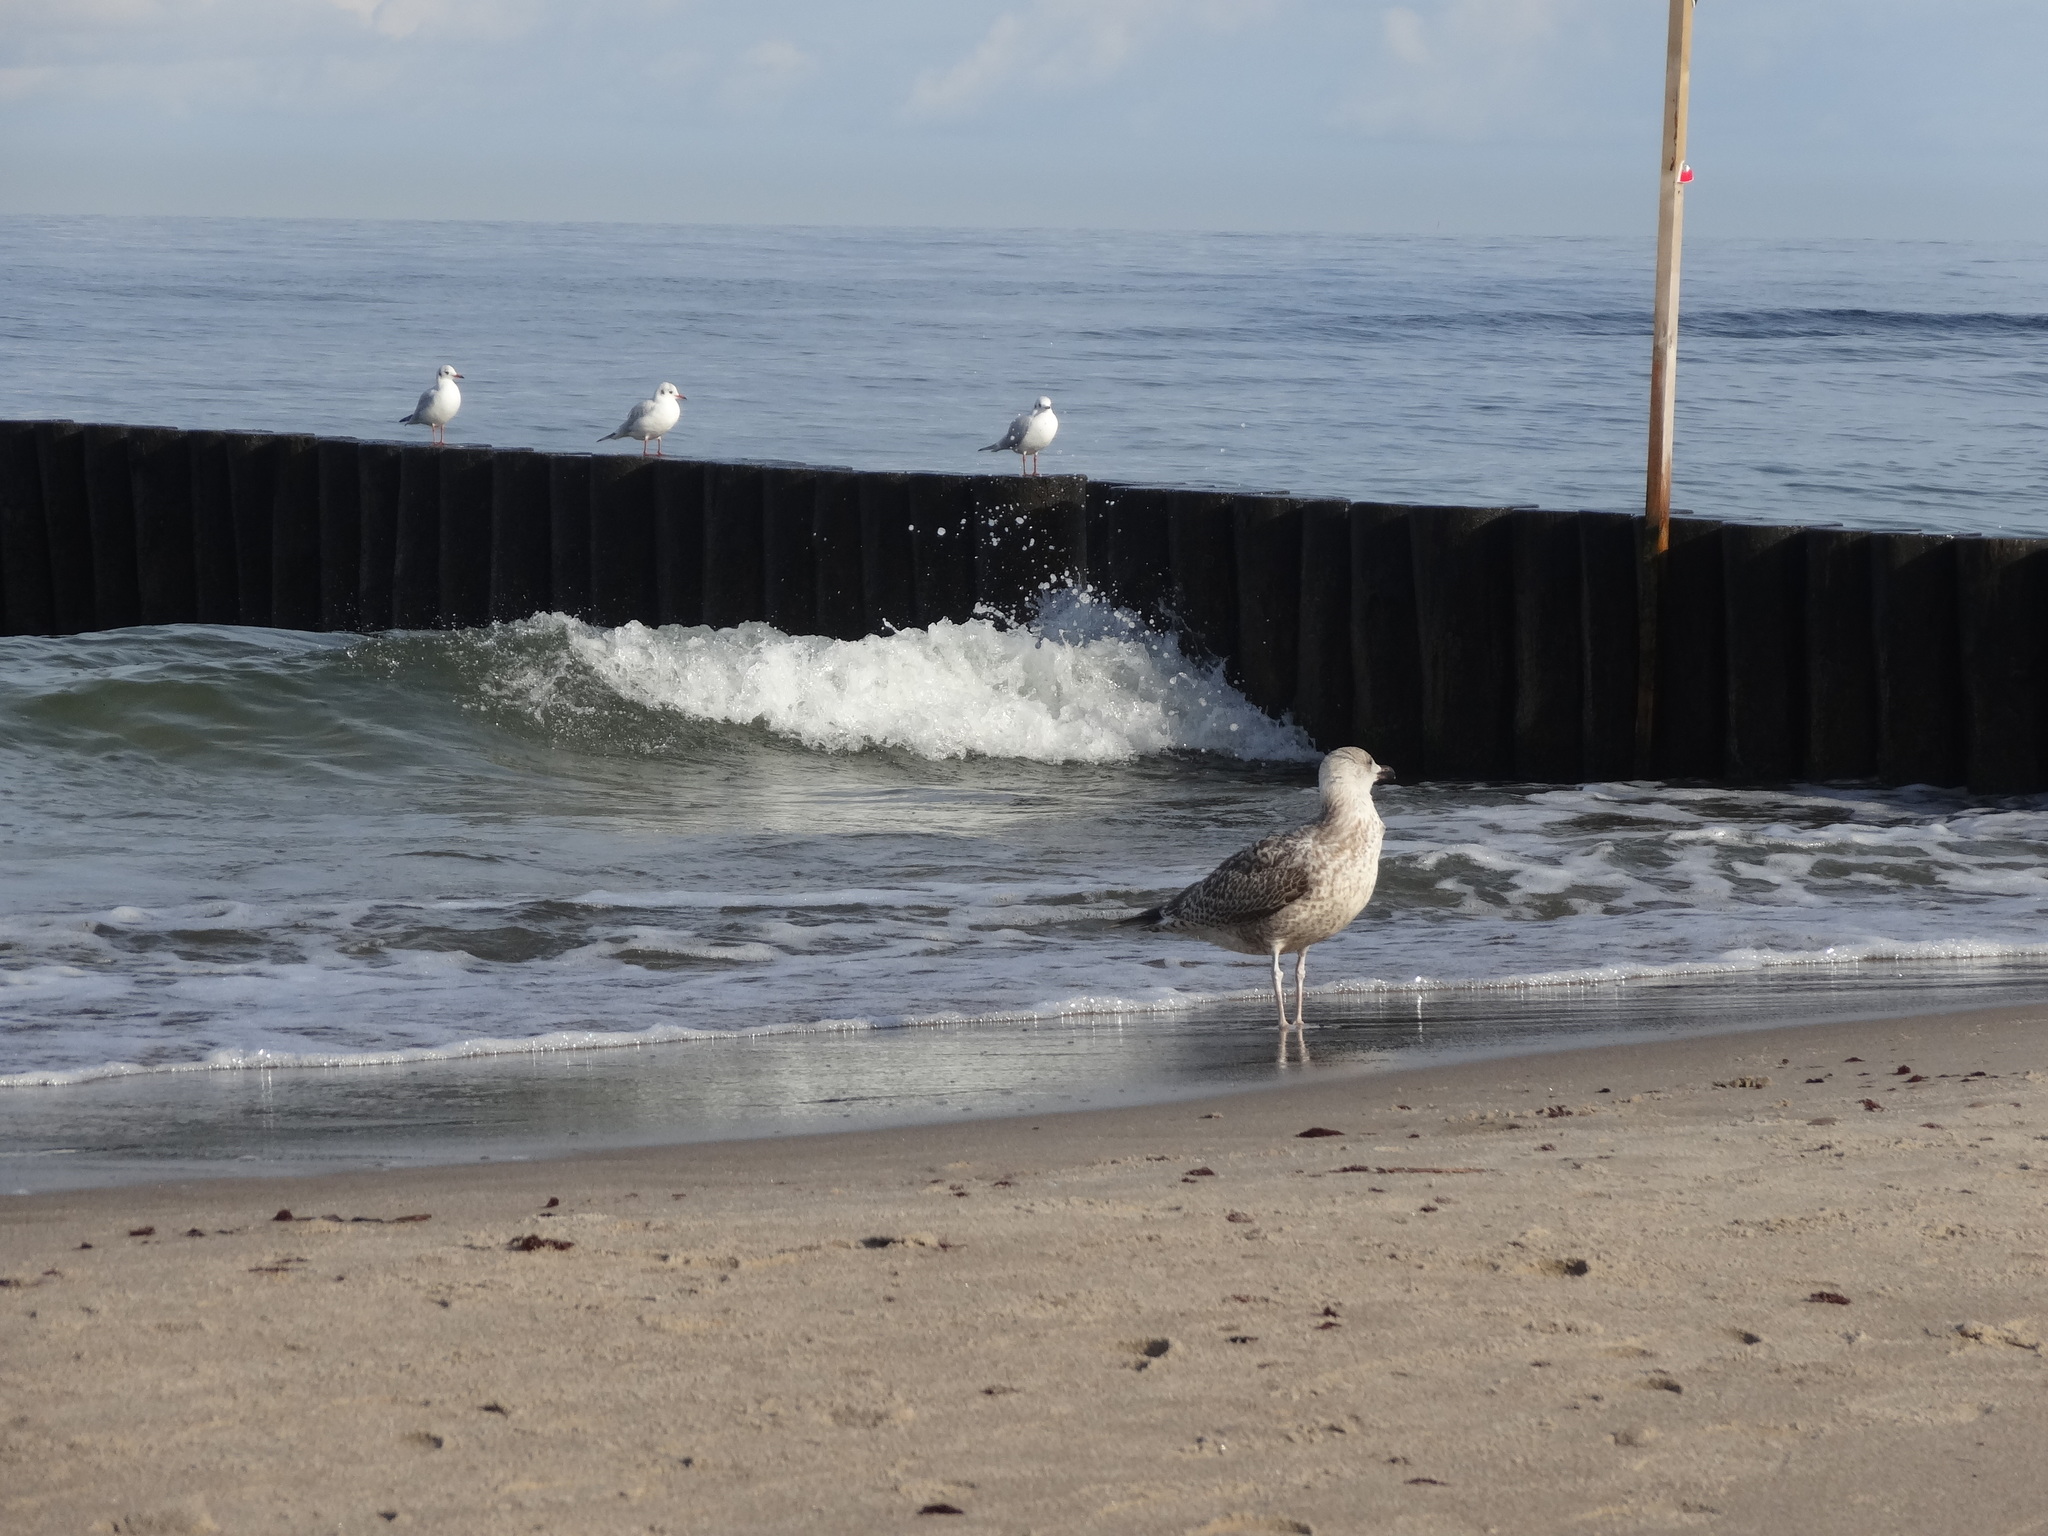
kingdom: Animalia
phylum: Chordata
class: Aves
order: Charadriiformes
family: Laridae
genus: Larus
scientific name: Larus argentatus
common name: Herring gull
